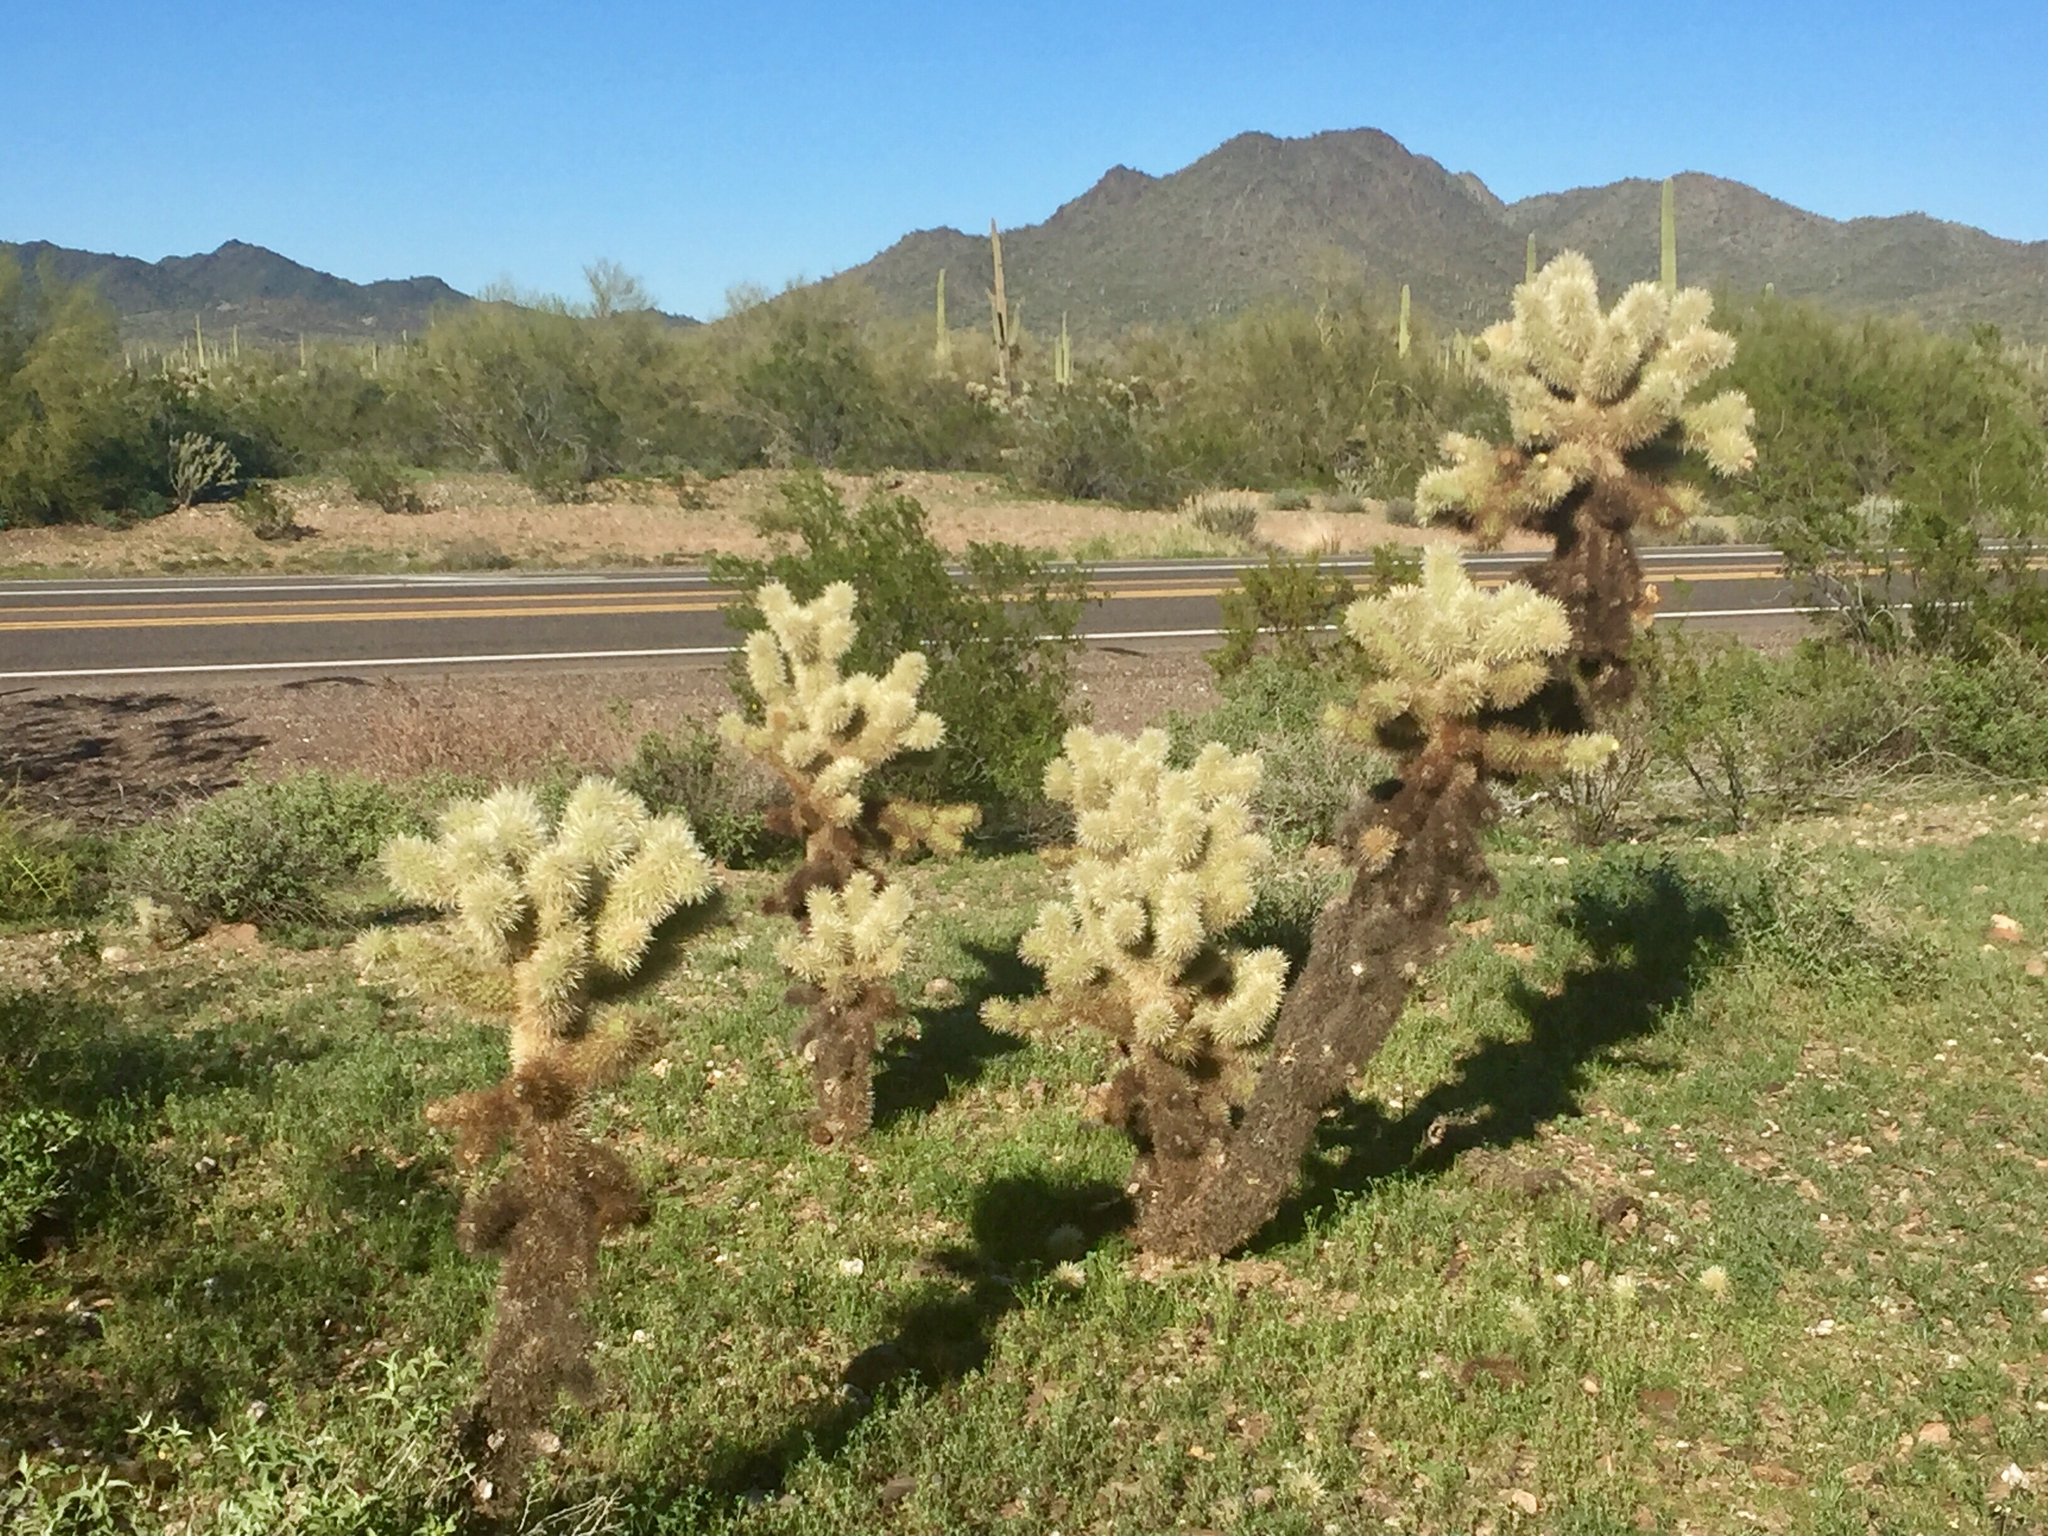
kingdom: Plantae
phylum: Tracheophyta
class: Magnoliopsida
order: Caryophyllales
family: Cactaceae
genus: Cylindropuntia
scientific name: Cylindropuntia fosbergii
